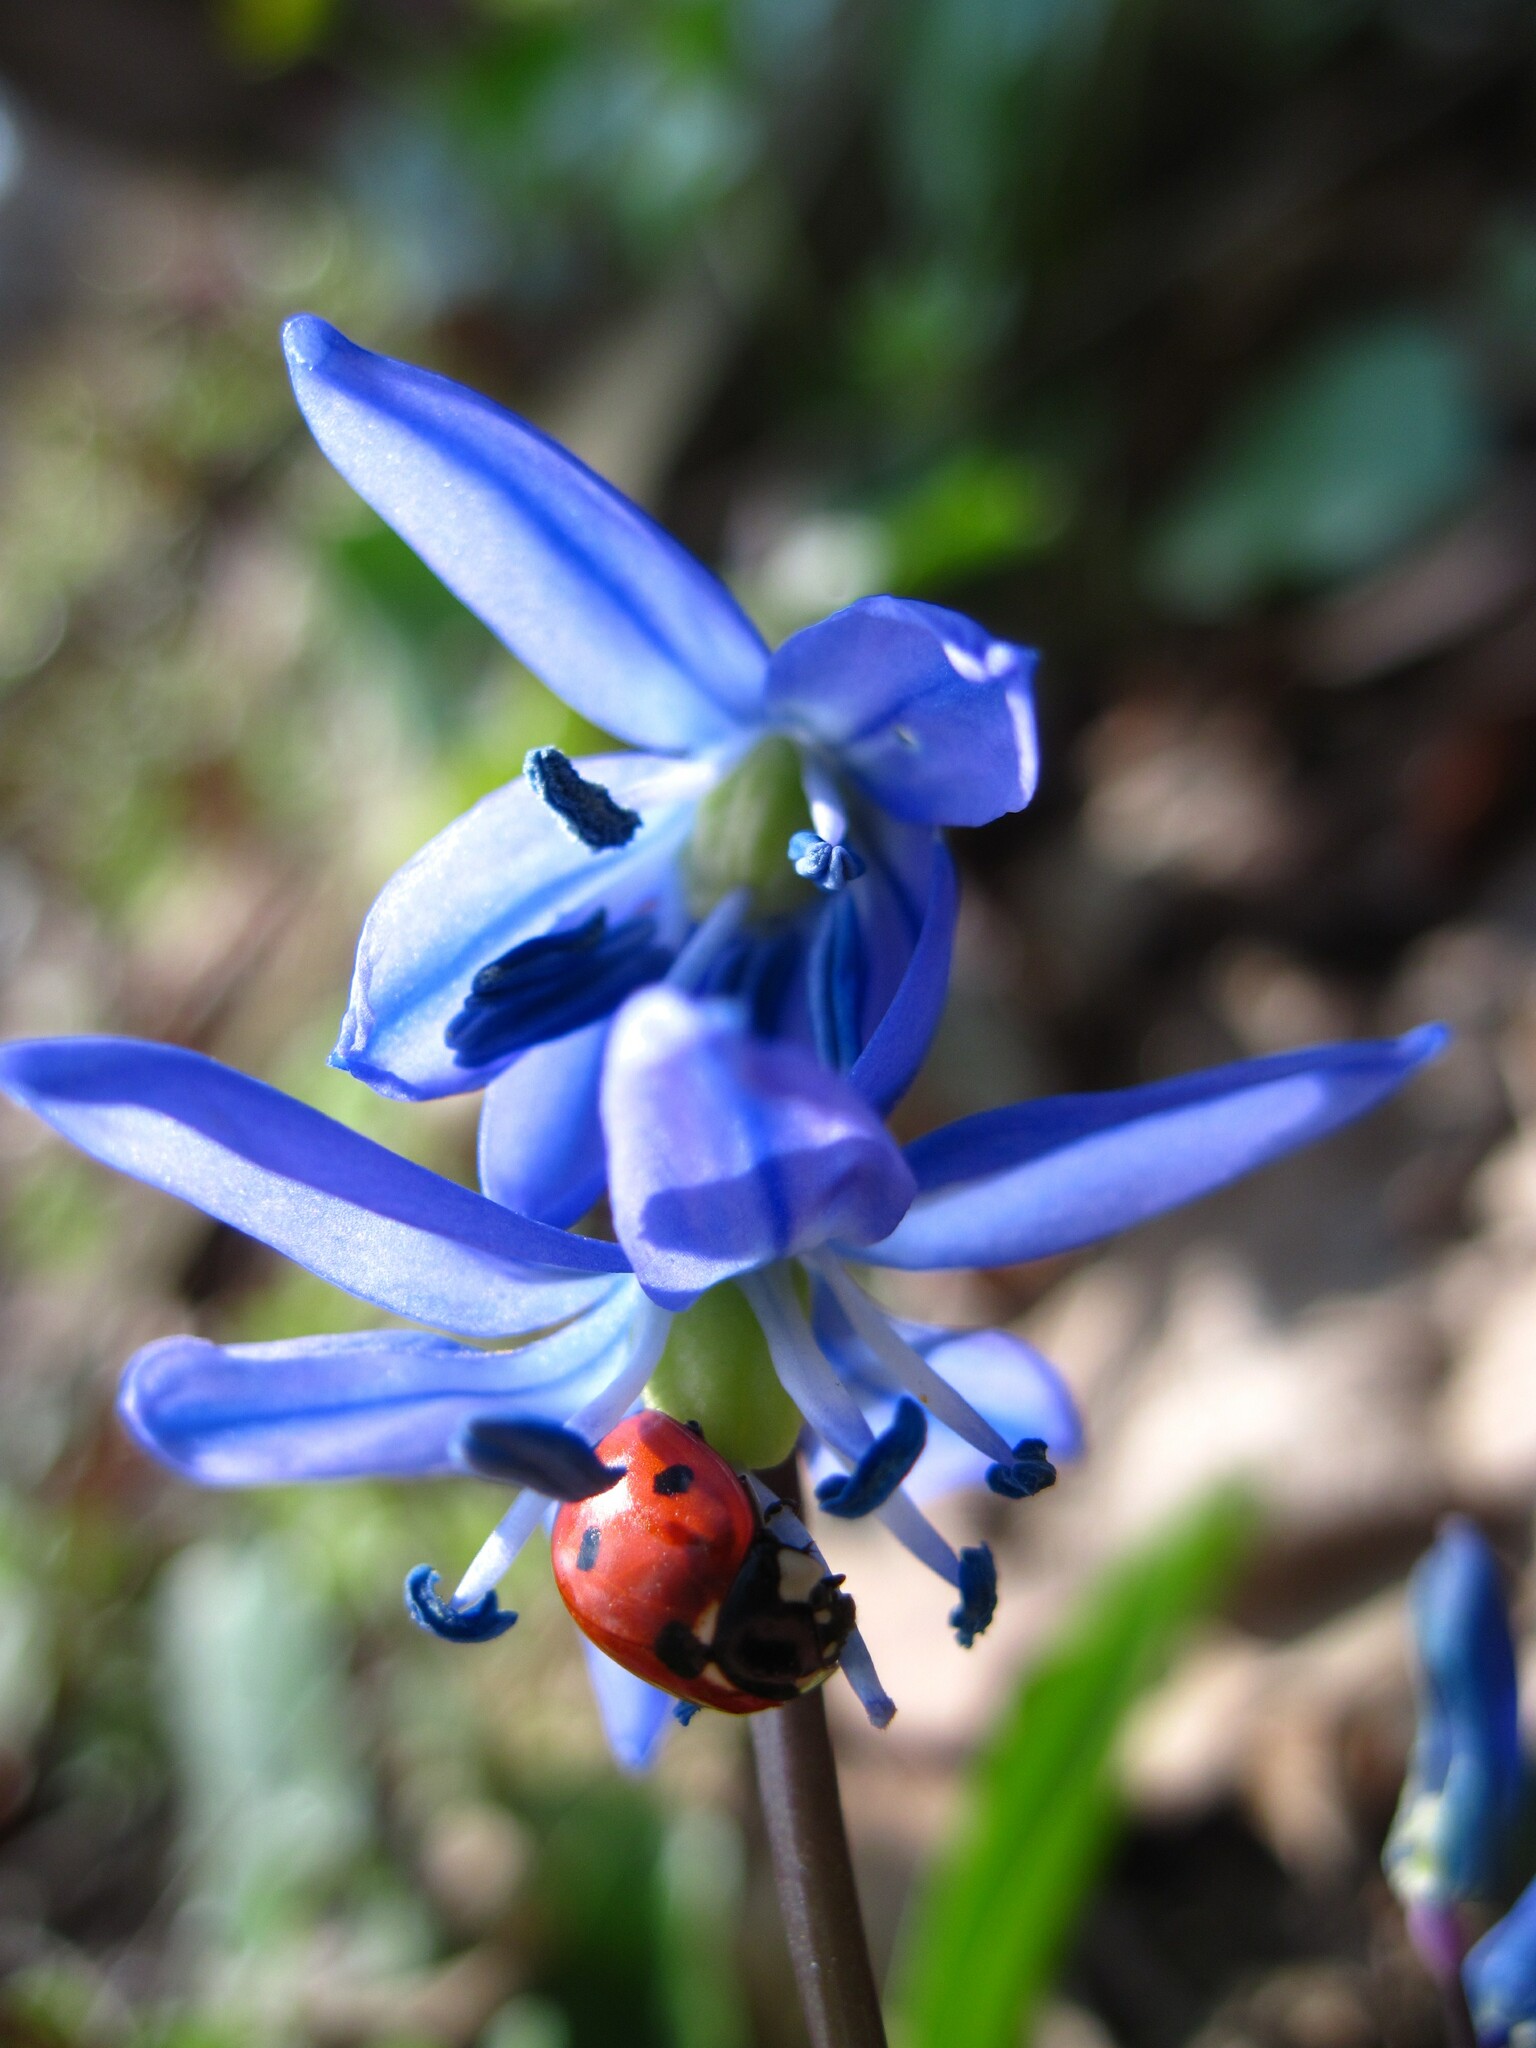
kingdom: Plantae
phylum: Tracheophyta
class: Liliopsida
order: Asparagales
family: Asparagaceae
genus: Scilla
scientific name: Scilla siberica
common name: Siberian squill
